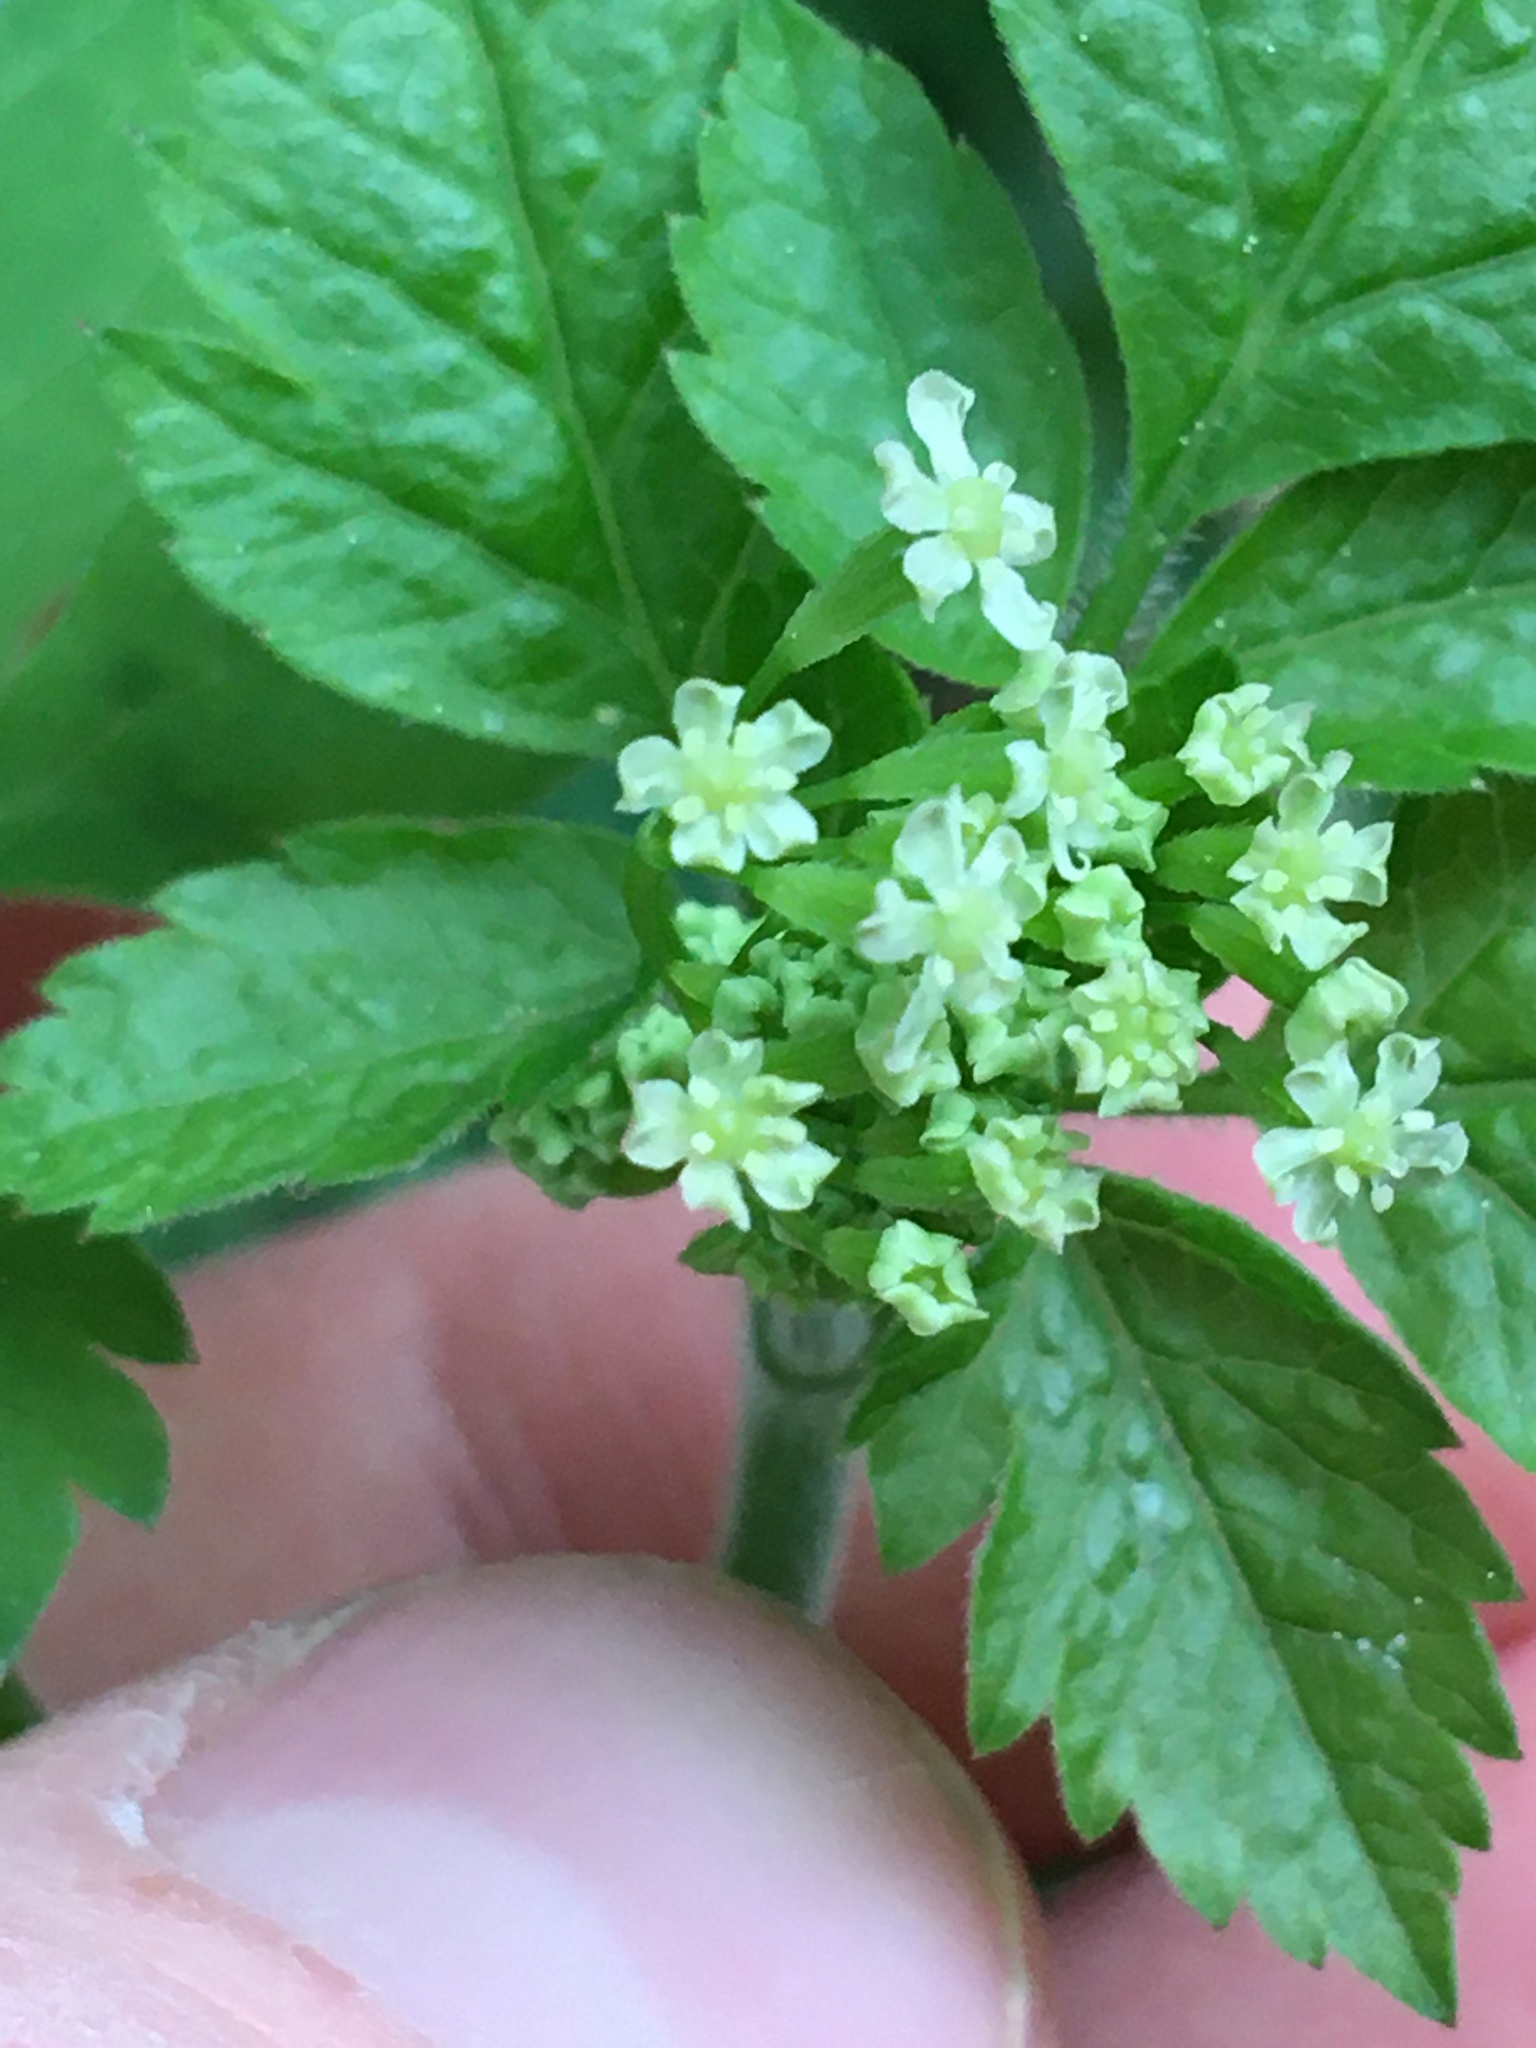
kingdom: Plantae
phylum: Tracheophyta
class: Magnoliopsida
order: Apiales
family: Apiaceae
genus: Osmorhiza
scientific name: Osmorhiza berteroi
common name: Mountain sweet cicely
